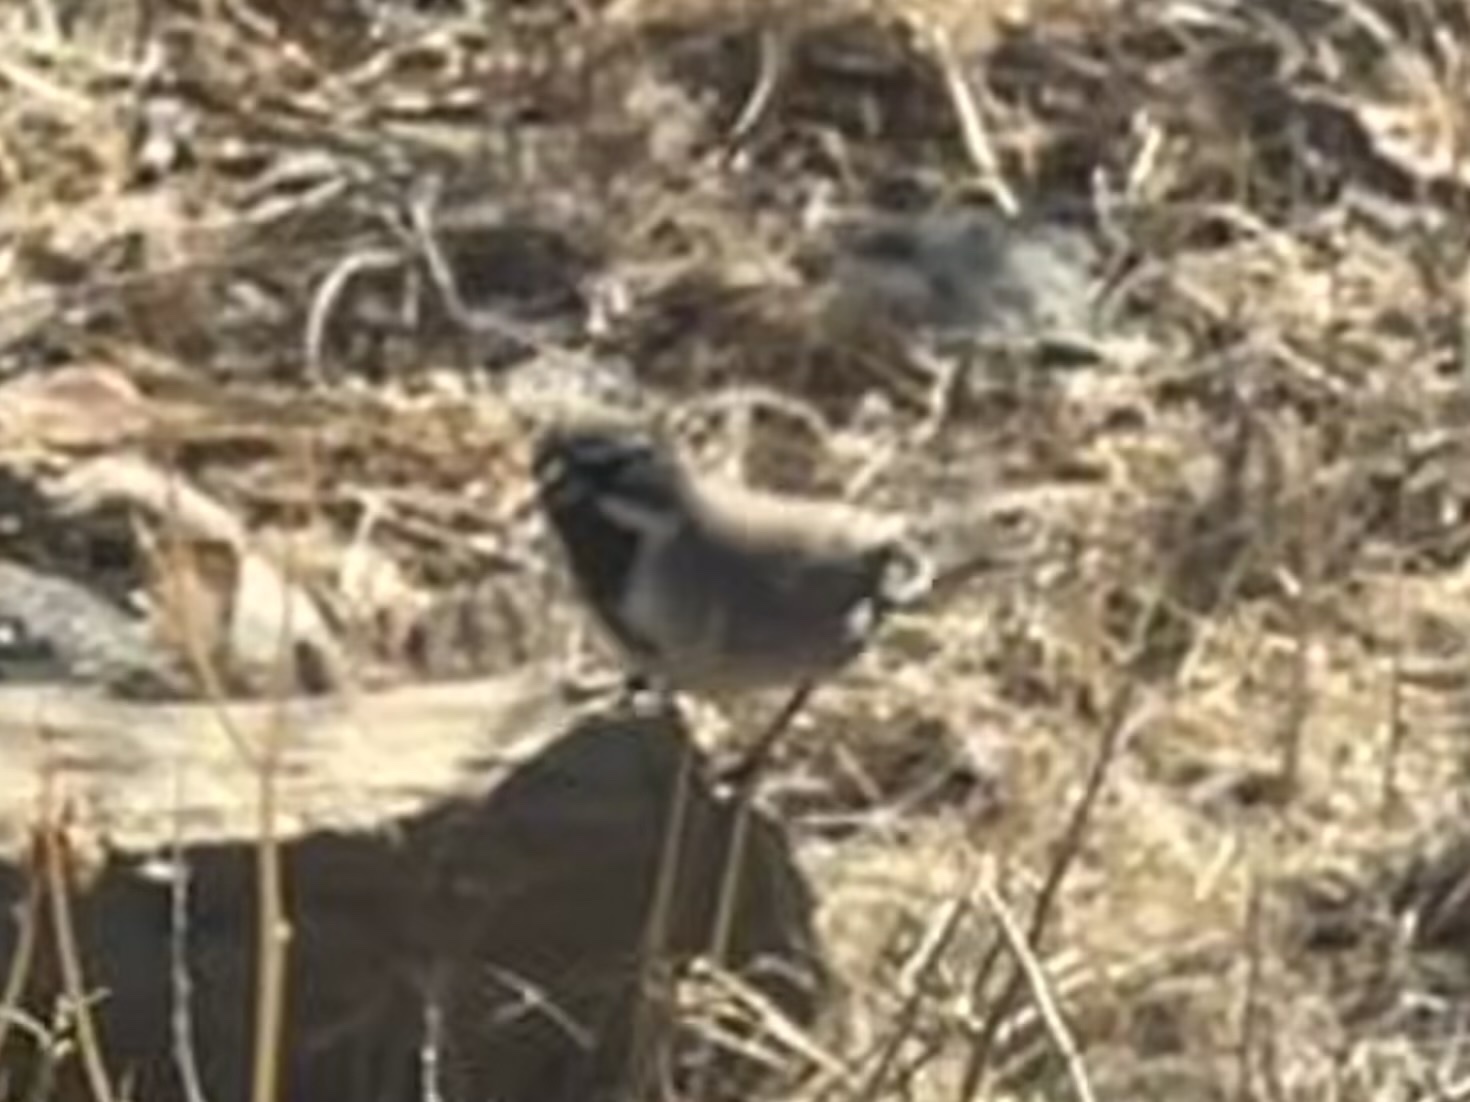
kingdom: Animalia
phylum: Chordata
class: Aves
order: Passeriformes
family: Passerellidae
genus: Amphispiza
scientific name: Amphispiza bilineata
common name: Black-throated sparrow
